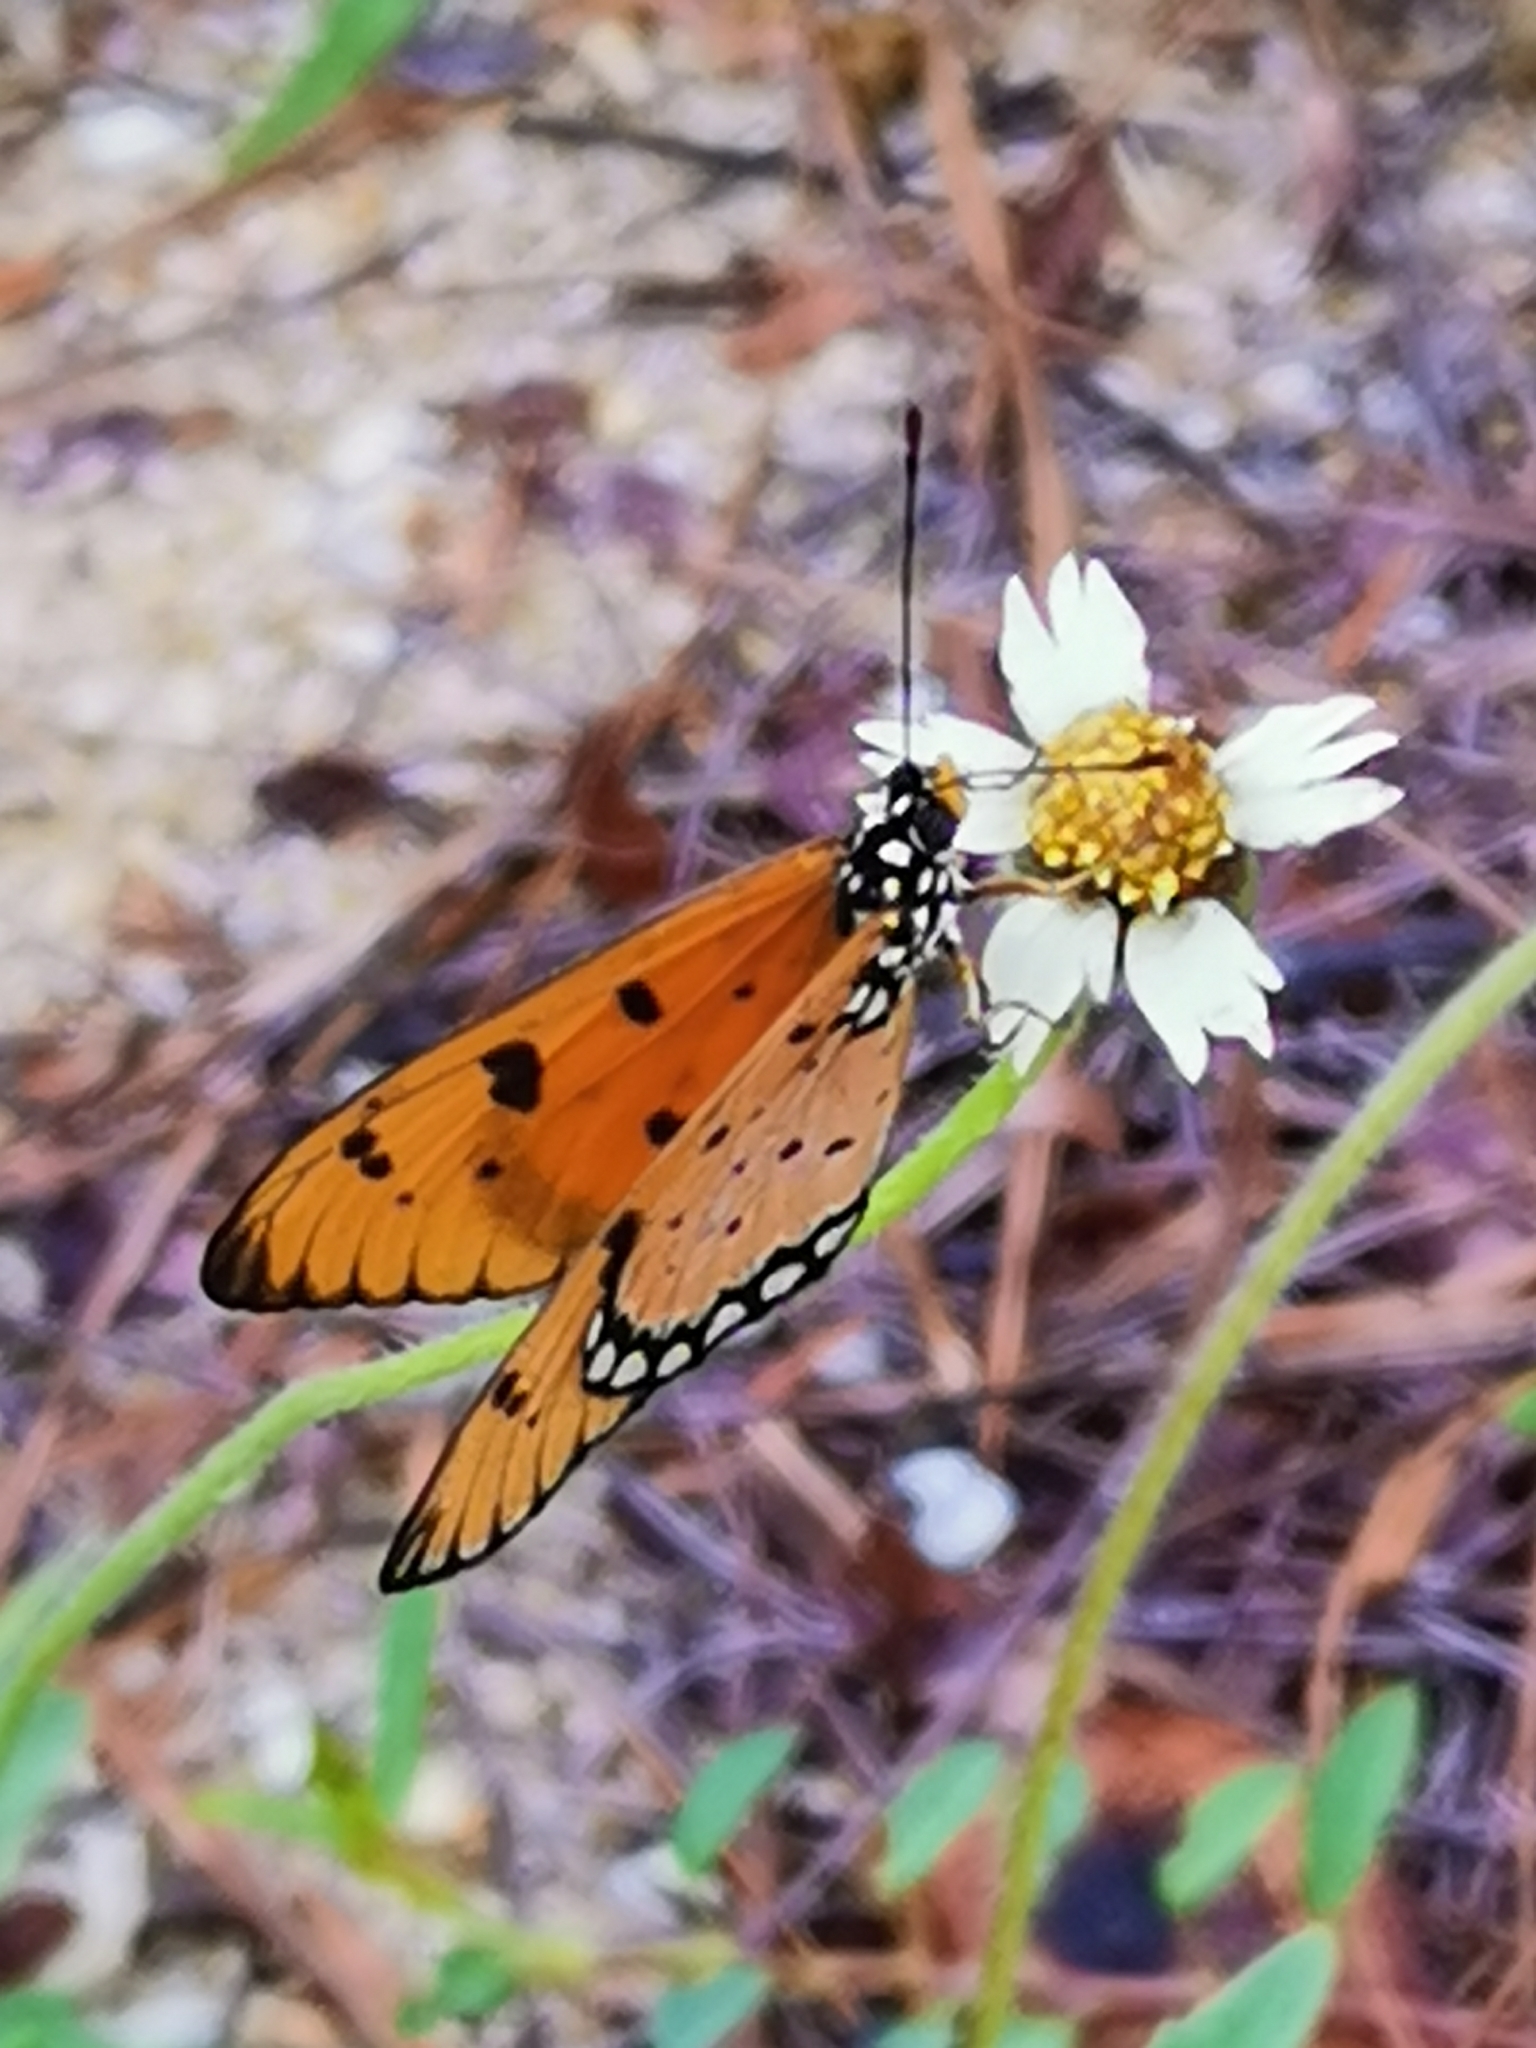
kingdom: Animalia
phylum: Arthropoda
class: Insecta
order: Lepidoptera
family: Nymphalidae
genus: Acraea
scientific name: Acraea terpsicore
